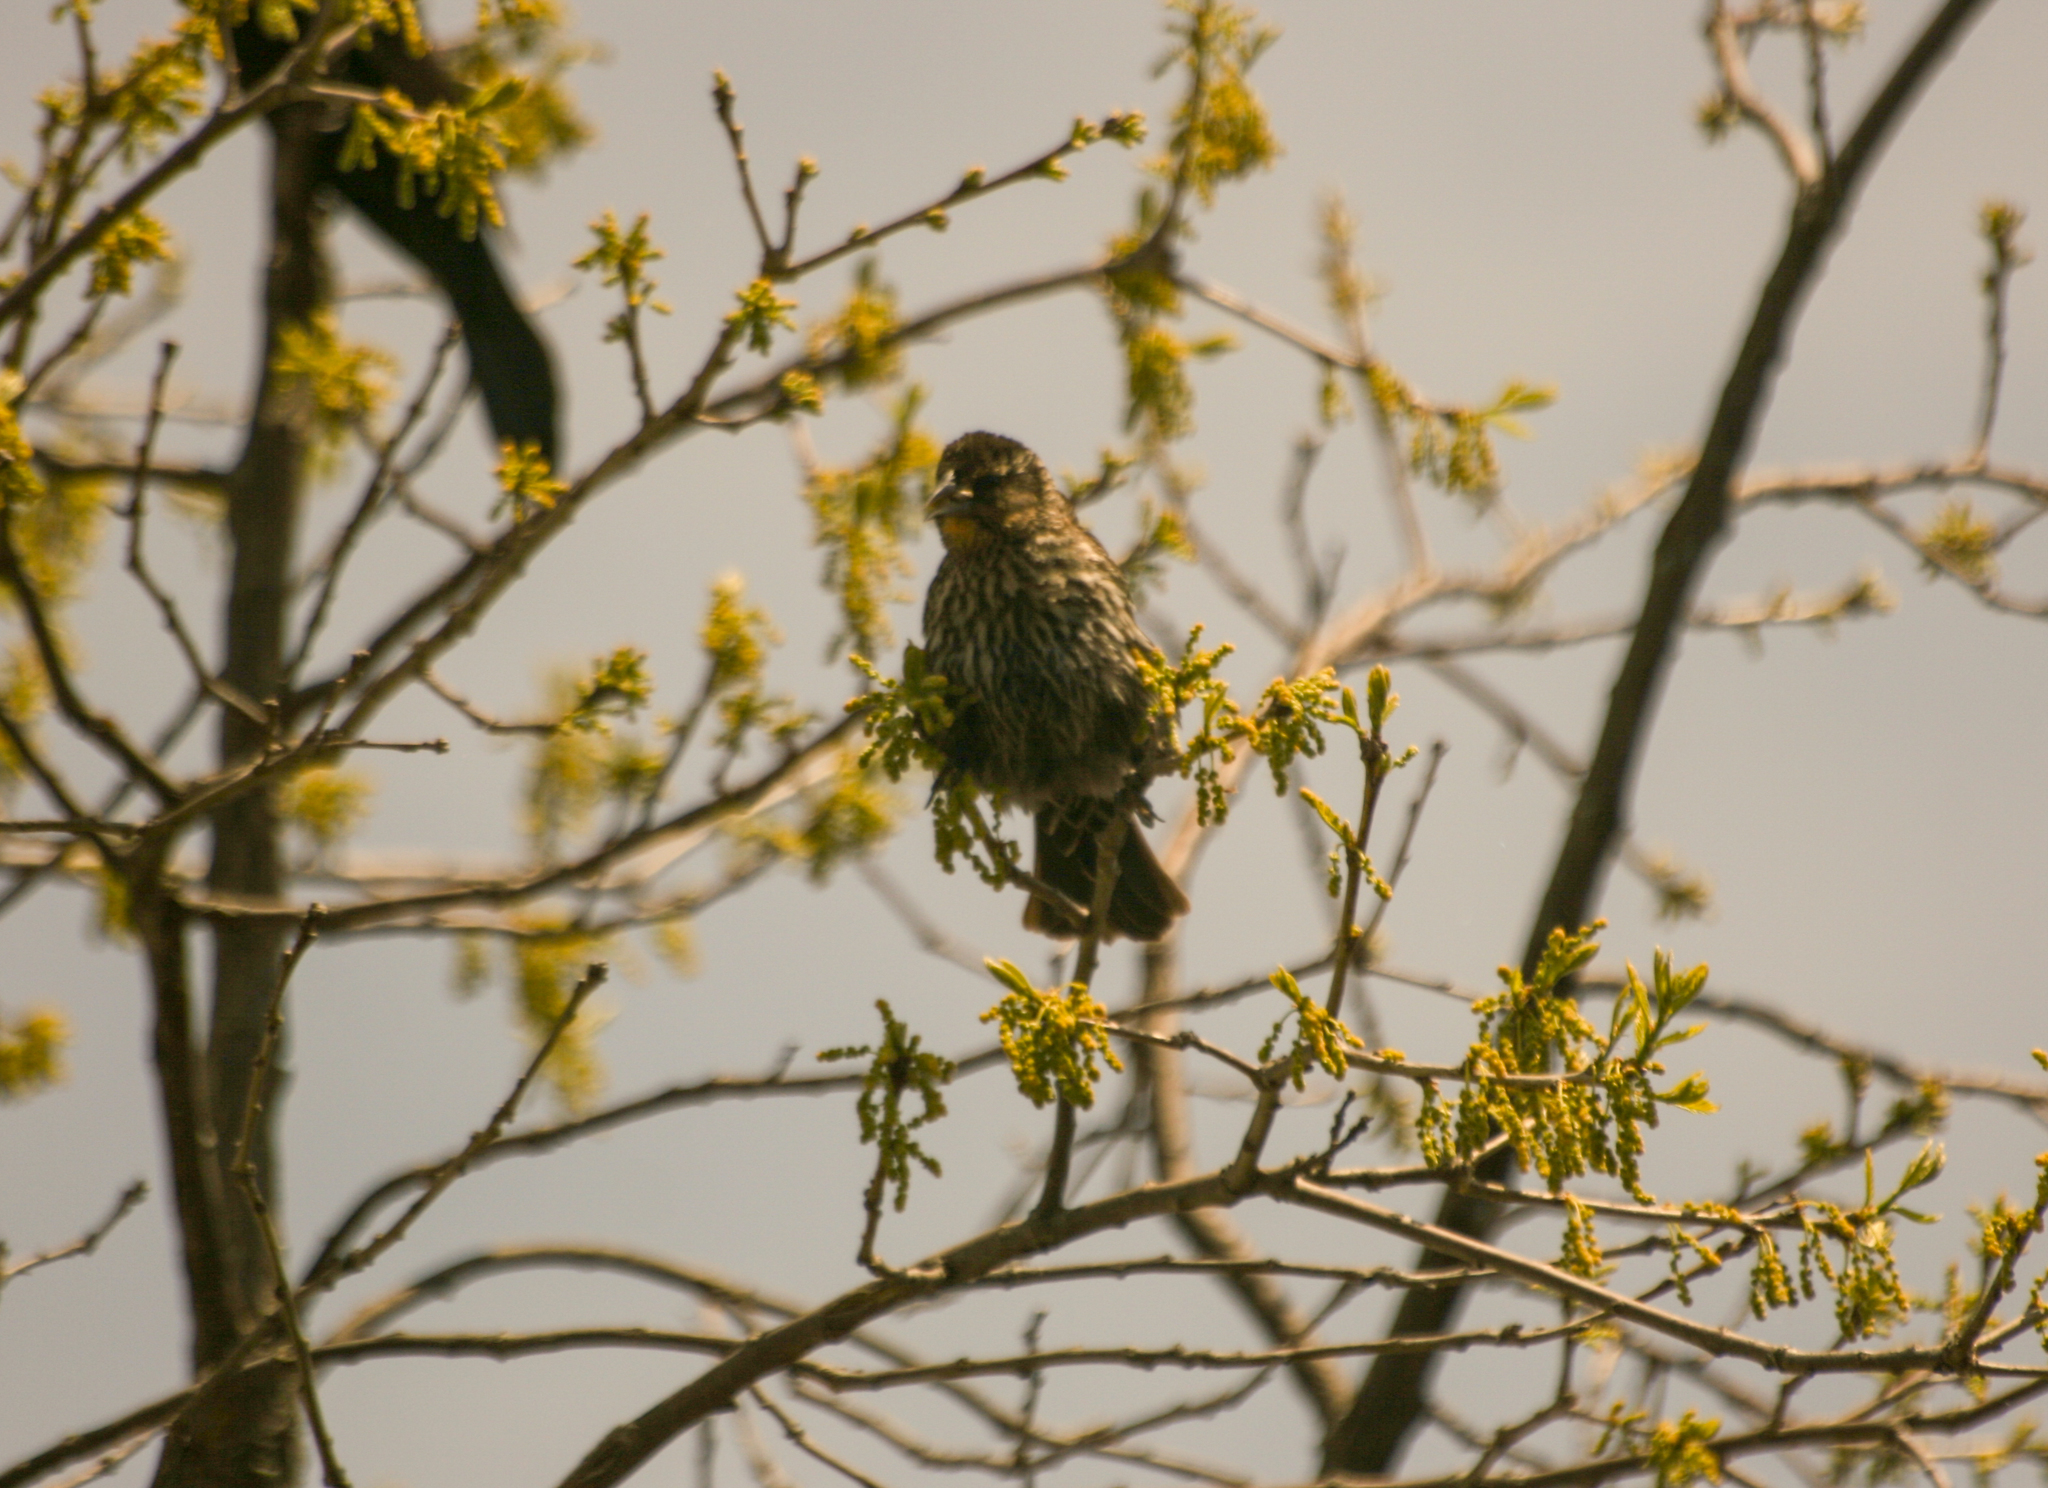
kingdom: Animalia
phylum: Chordata
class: Aves
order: Passeriformes
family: Icteridae
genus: Agelaius
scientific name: Agelaius phoeniceus
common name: Red-winged blackbird
